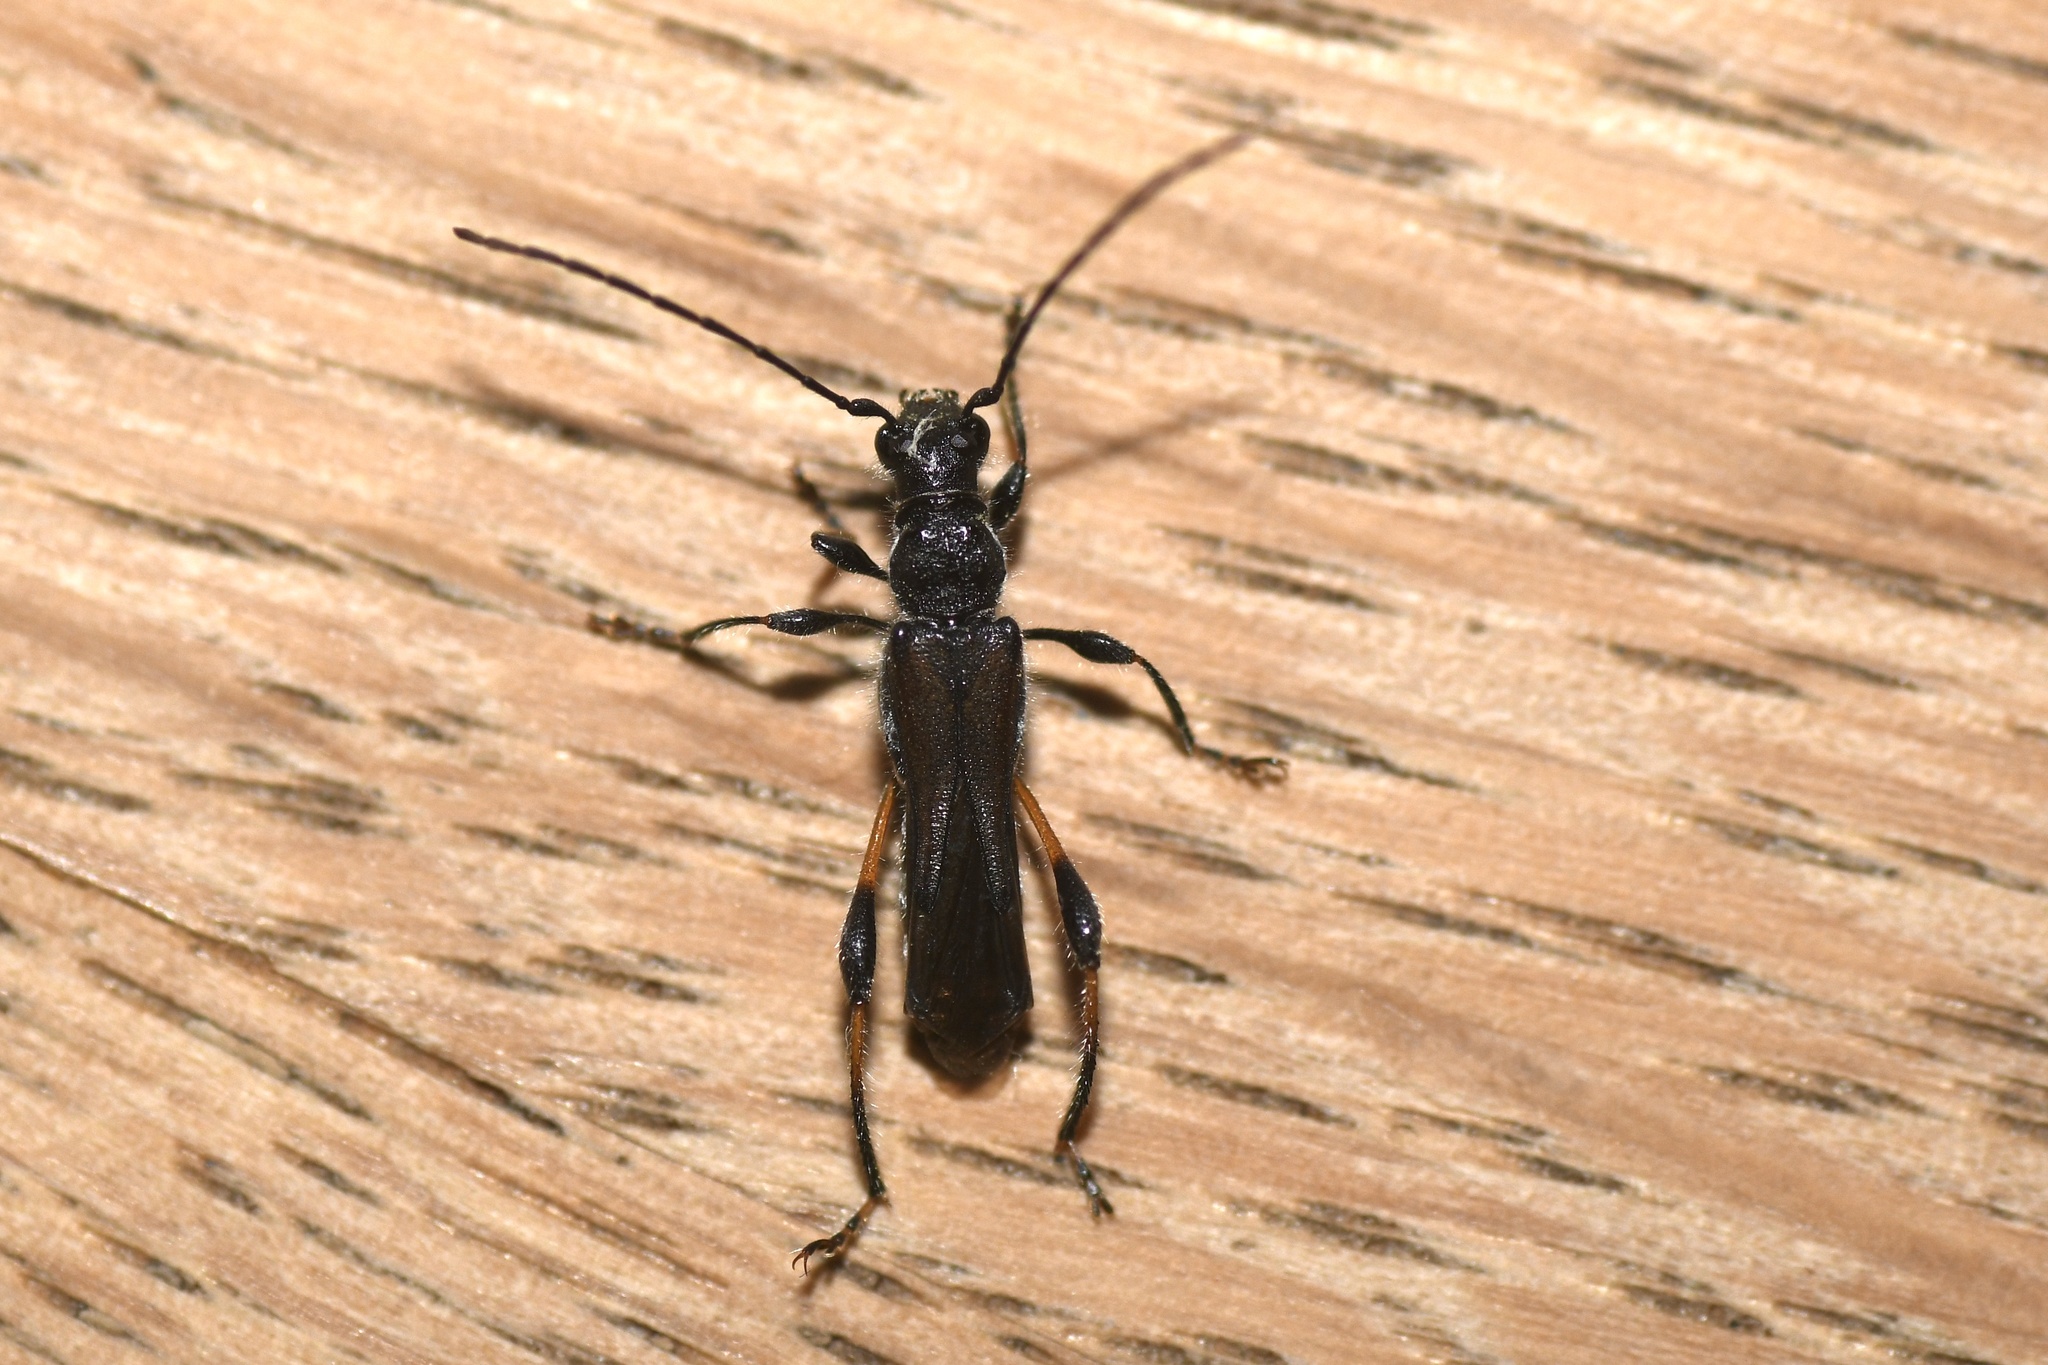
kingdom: Animalia
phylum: Arthropoda
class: Insecta
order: Coleoptera
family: Cerambycidae
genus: Callimoxys
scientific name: Callimoxys sanguinicollis
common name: Blood-necked longhorn beetle
